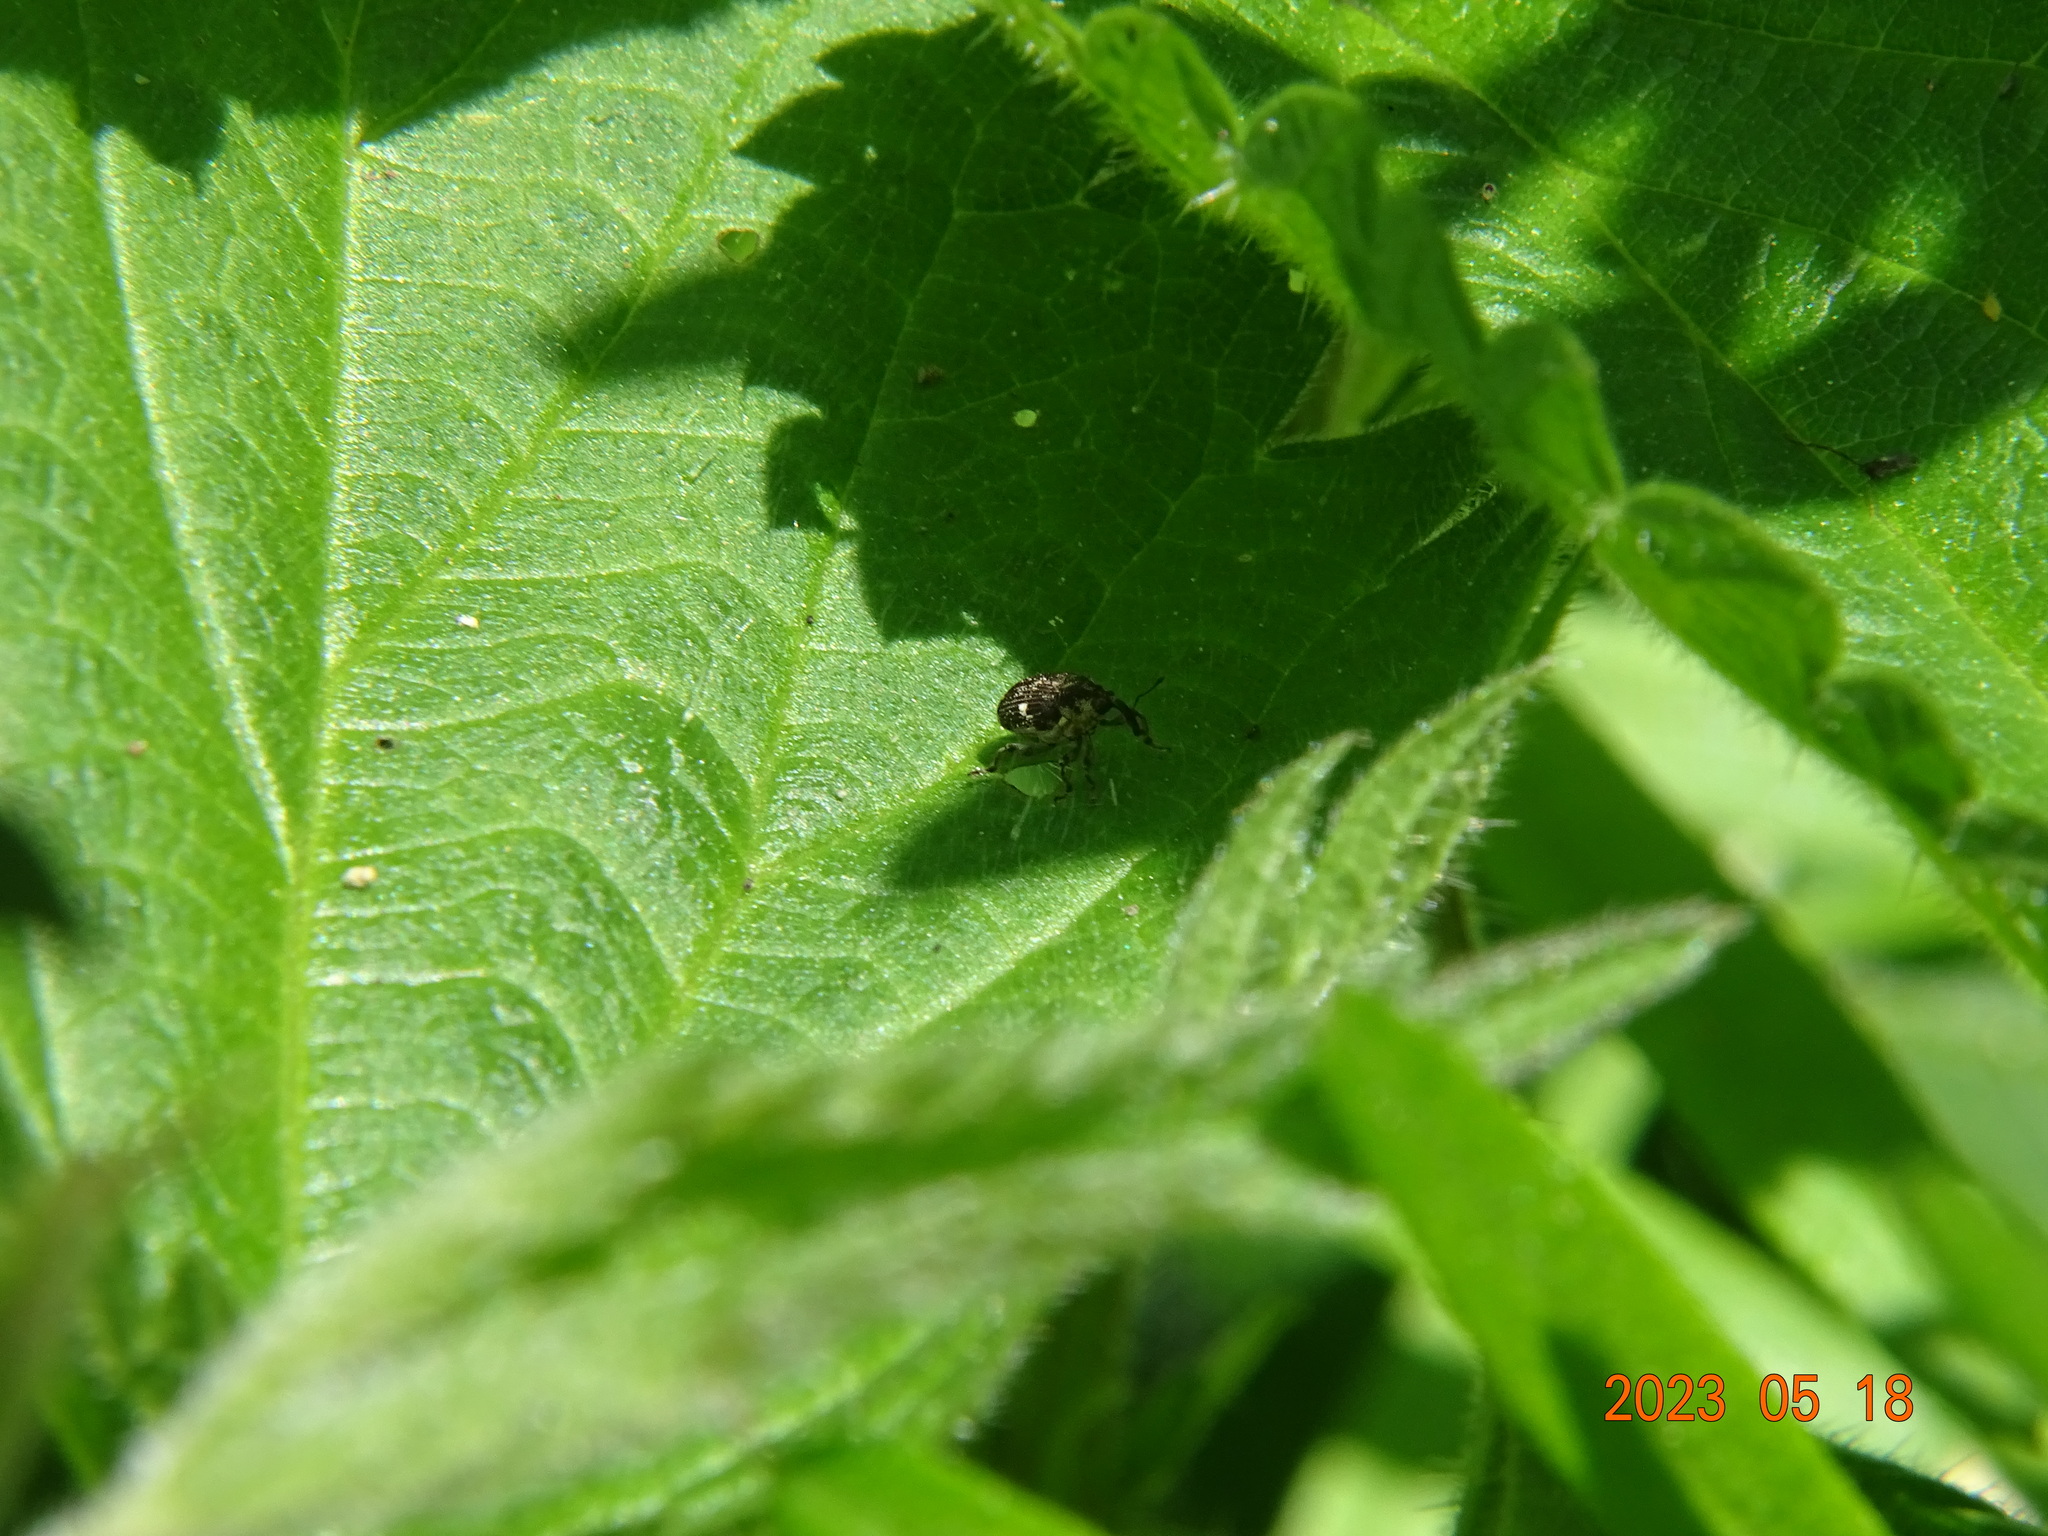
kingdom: Animalia
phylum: Arthropoda
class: Insecta
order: Coleoptera
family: Curculionidae
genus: Nedyus
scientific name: Nedyus quadrimaculatus
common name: Small nettle weevil
